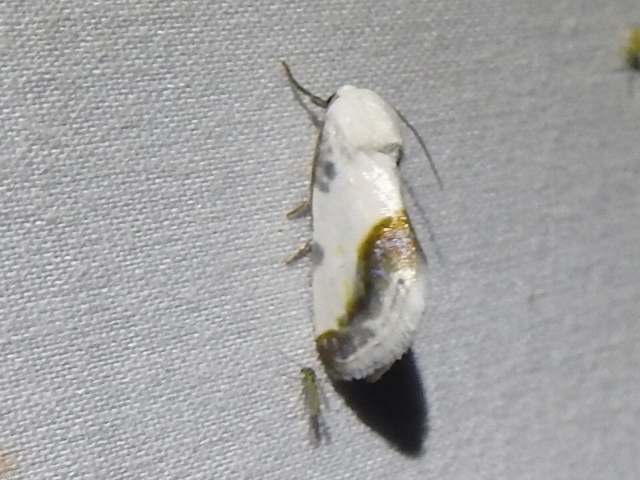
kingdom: Animalia
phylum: Arthropoda
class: Insecta
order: Lepidoptera
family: Noctuidae
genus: Acontia
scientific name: Acontia cretata
